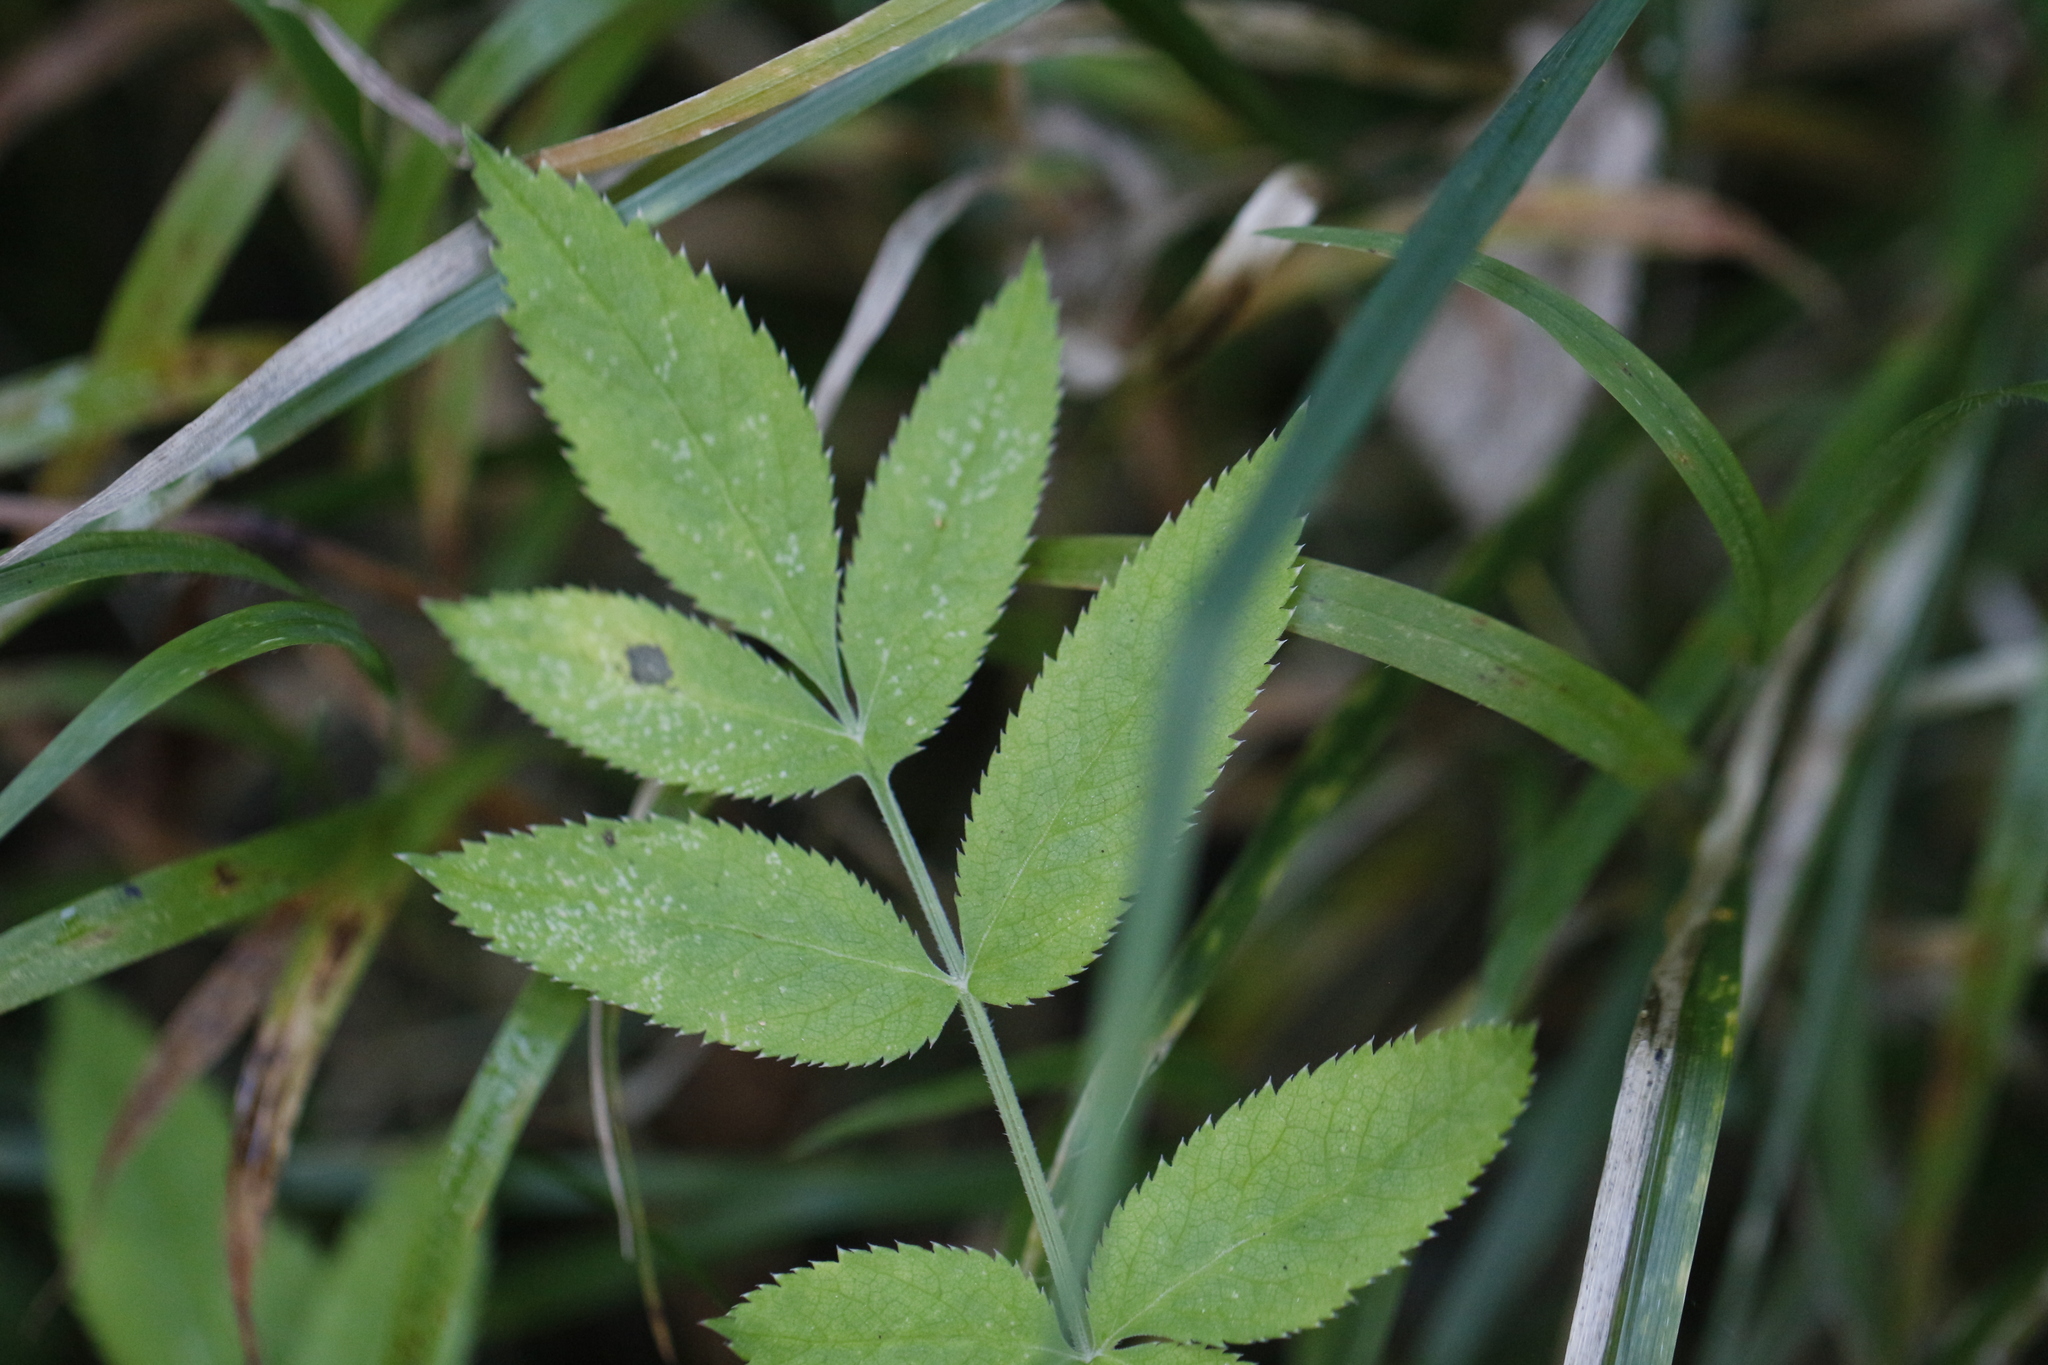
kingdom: Plantae
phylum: Tracheophyta
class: Magnoliopsida
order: Apiales
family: Apiaceae
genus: Angelica
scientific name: Angelica sylvestris
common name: Wild angelica
